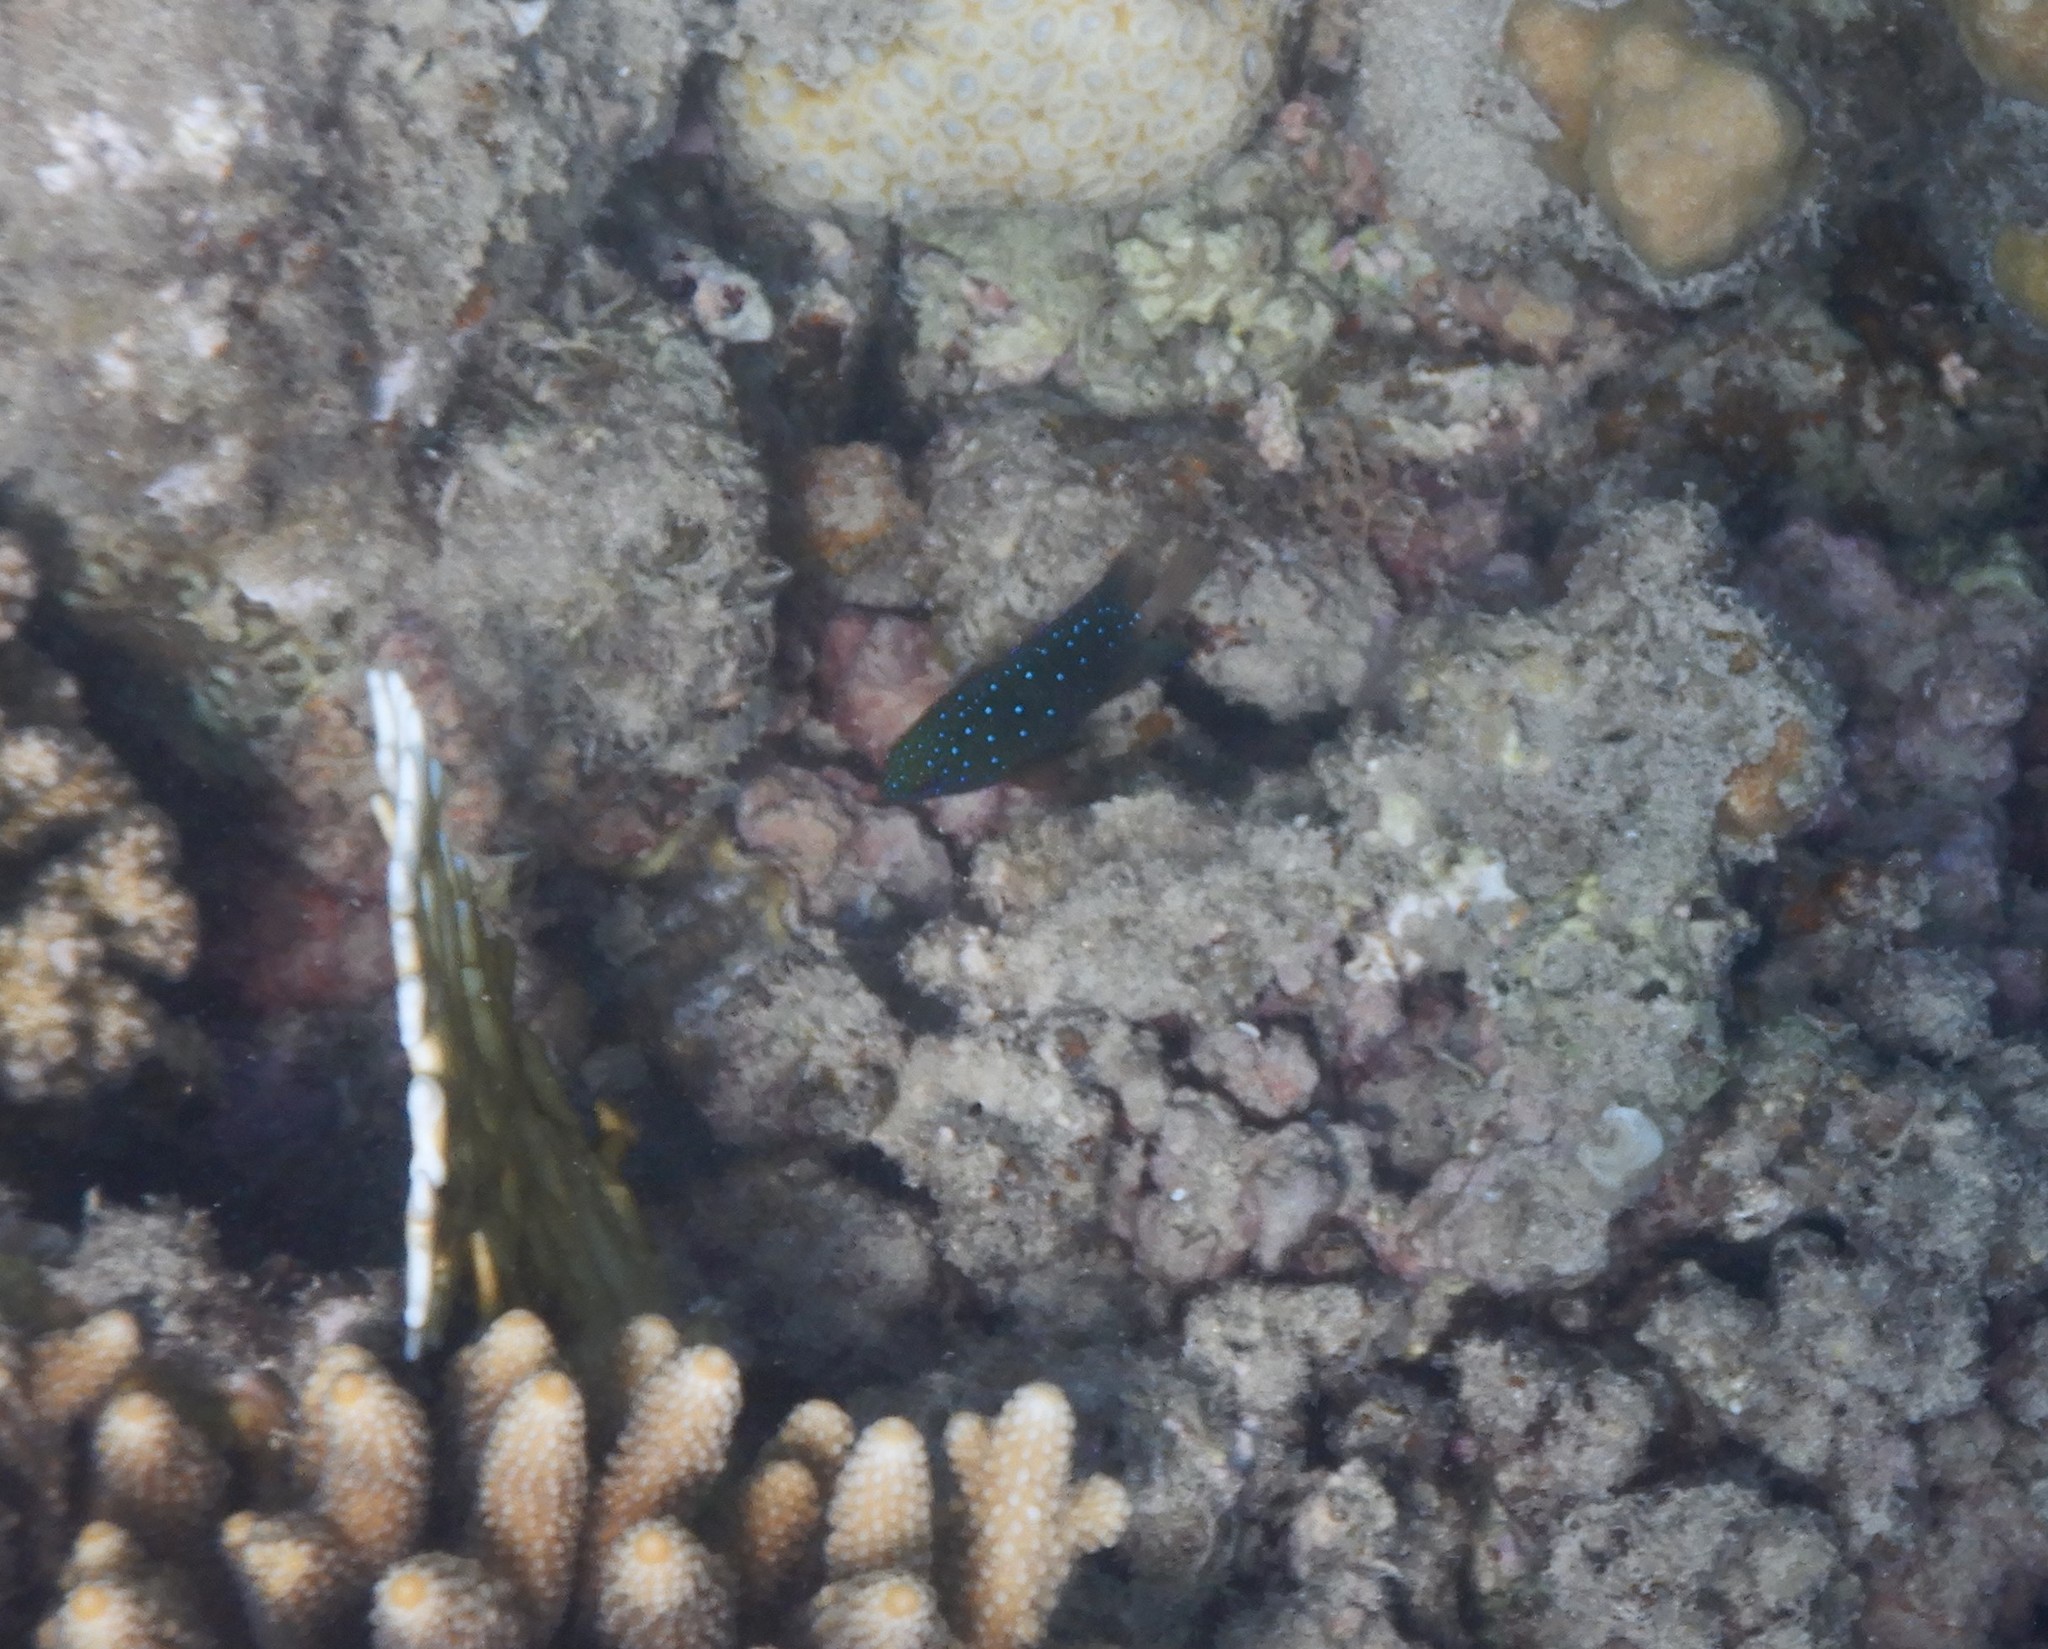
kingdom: Animalia
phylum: Chordata
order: Perciformes
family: Pomacentridae
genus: Plectroglyphidodon
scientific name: Plectroglyphidodon lacrymatus
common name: Jewel damsel
